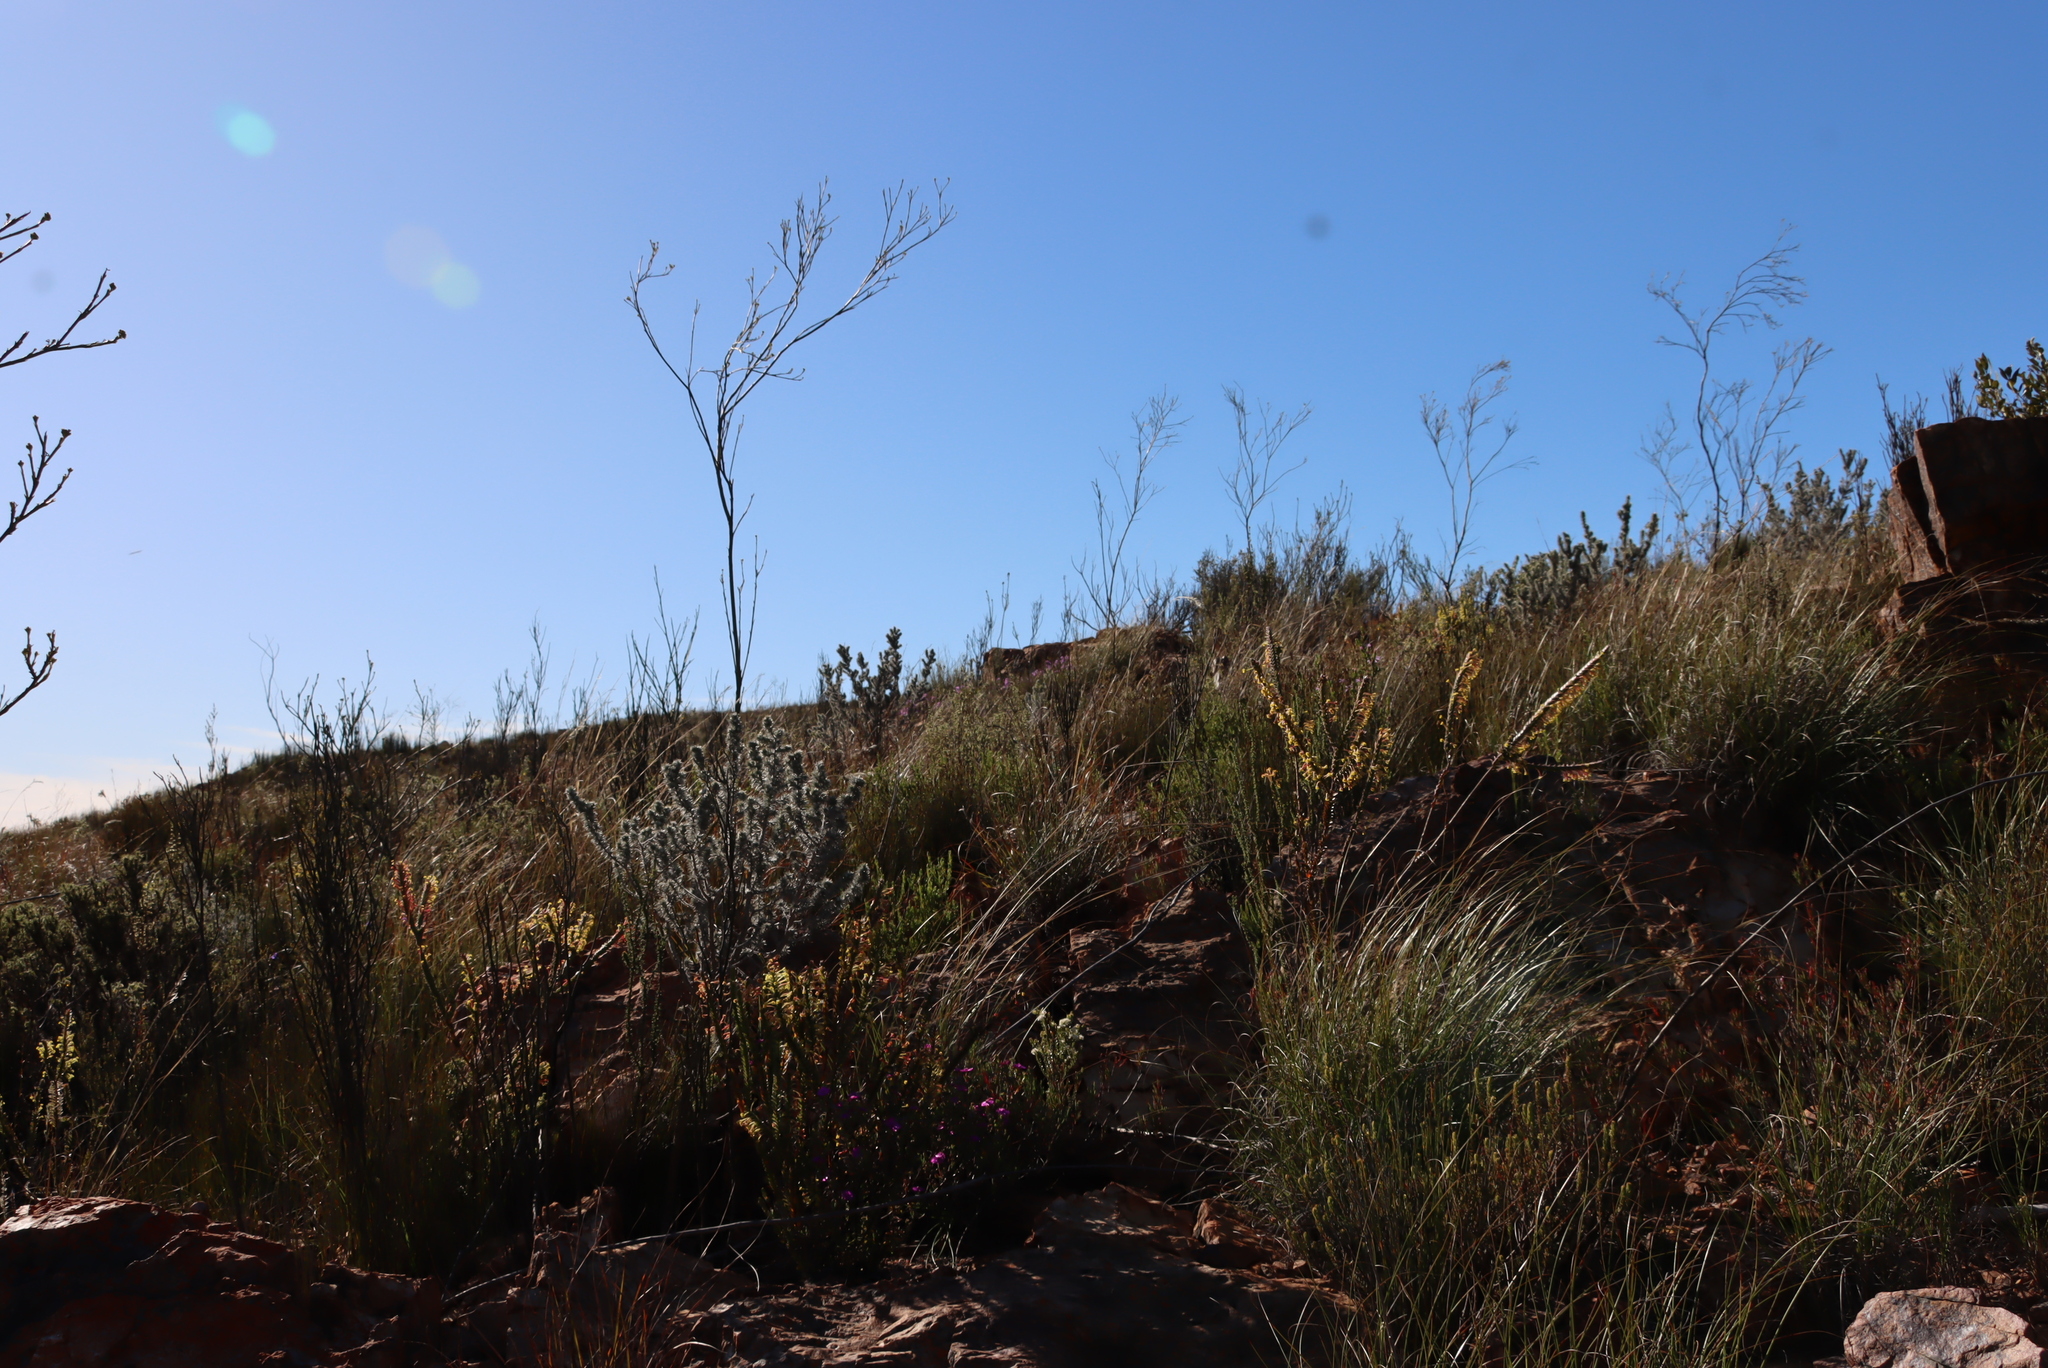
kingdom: Plantae
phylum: Tracheophyta
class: Magnoliopsida
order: Santalales
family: Thesiaceae
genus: Thesium
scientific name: Thesium strictum
